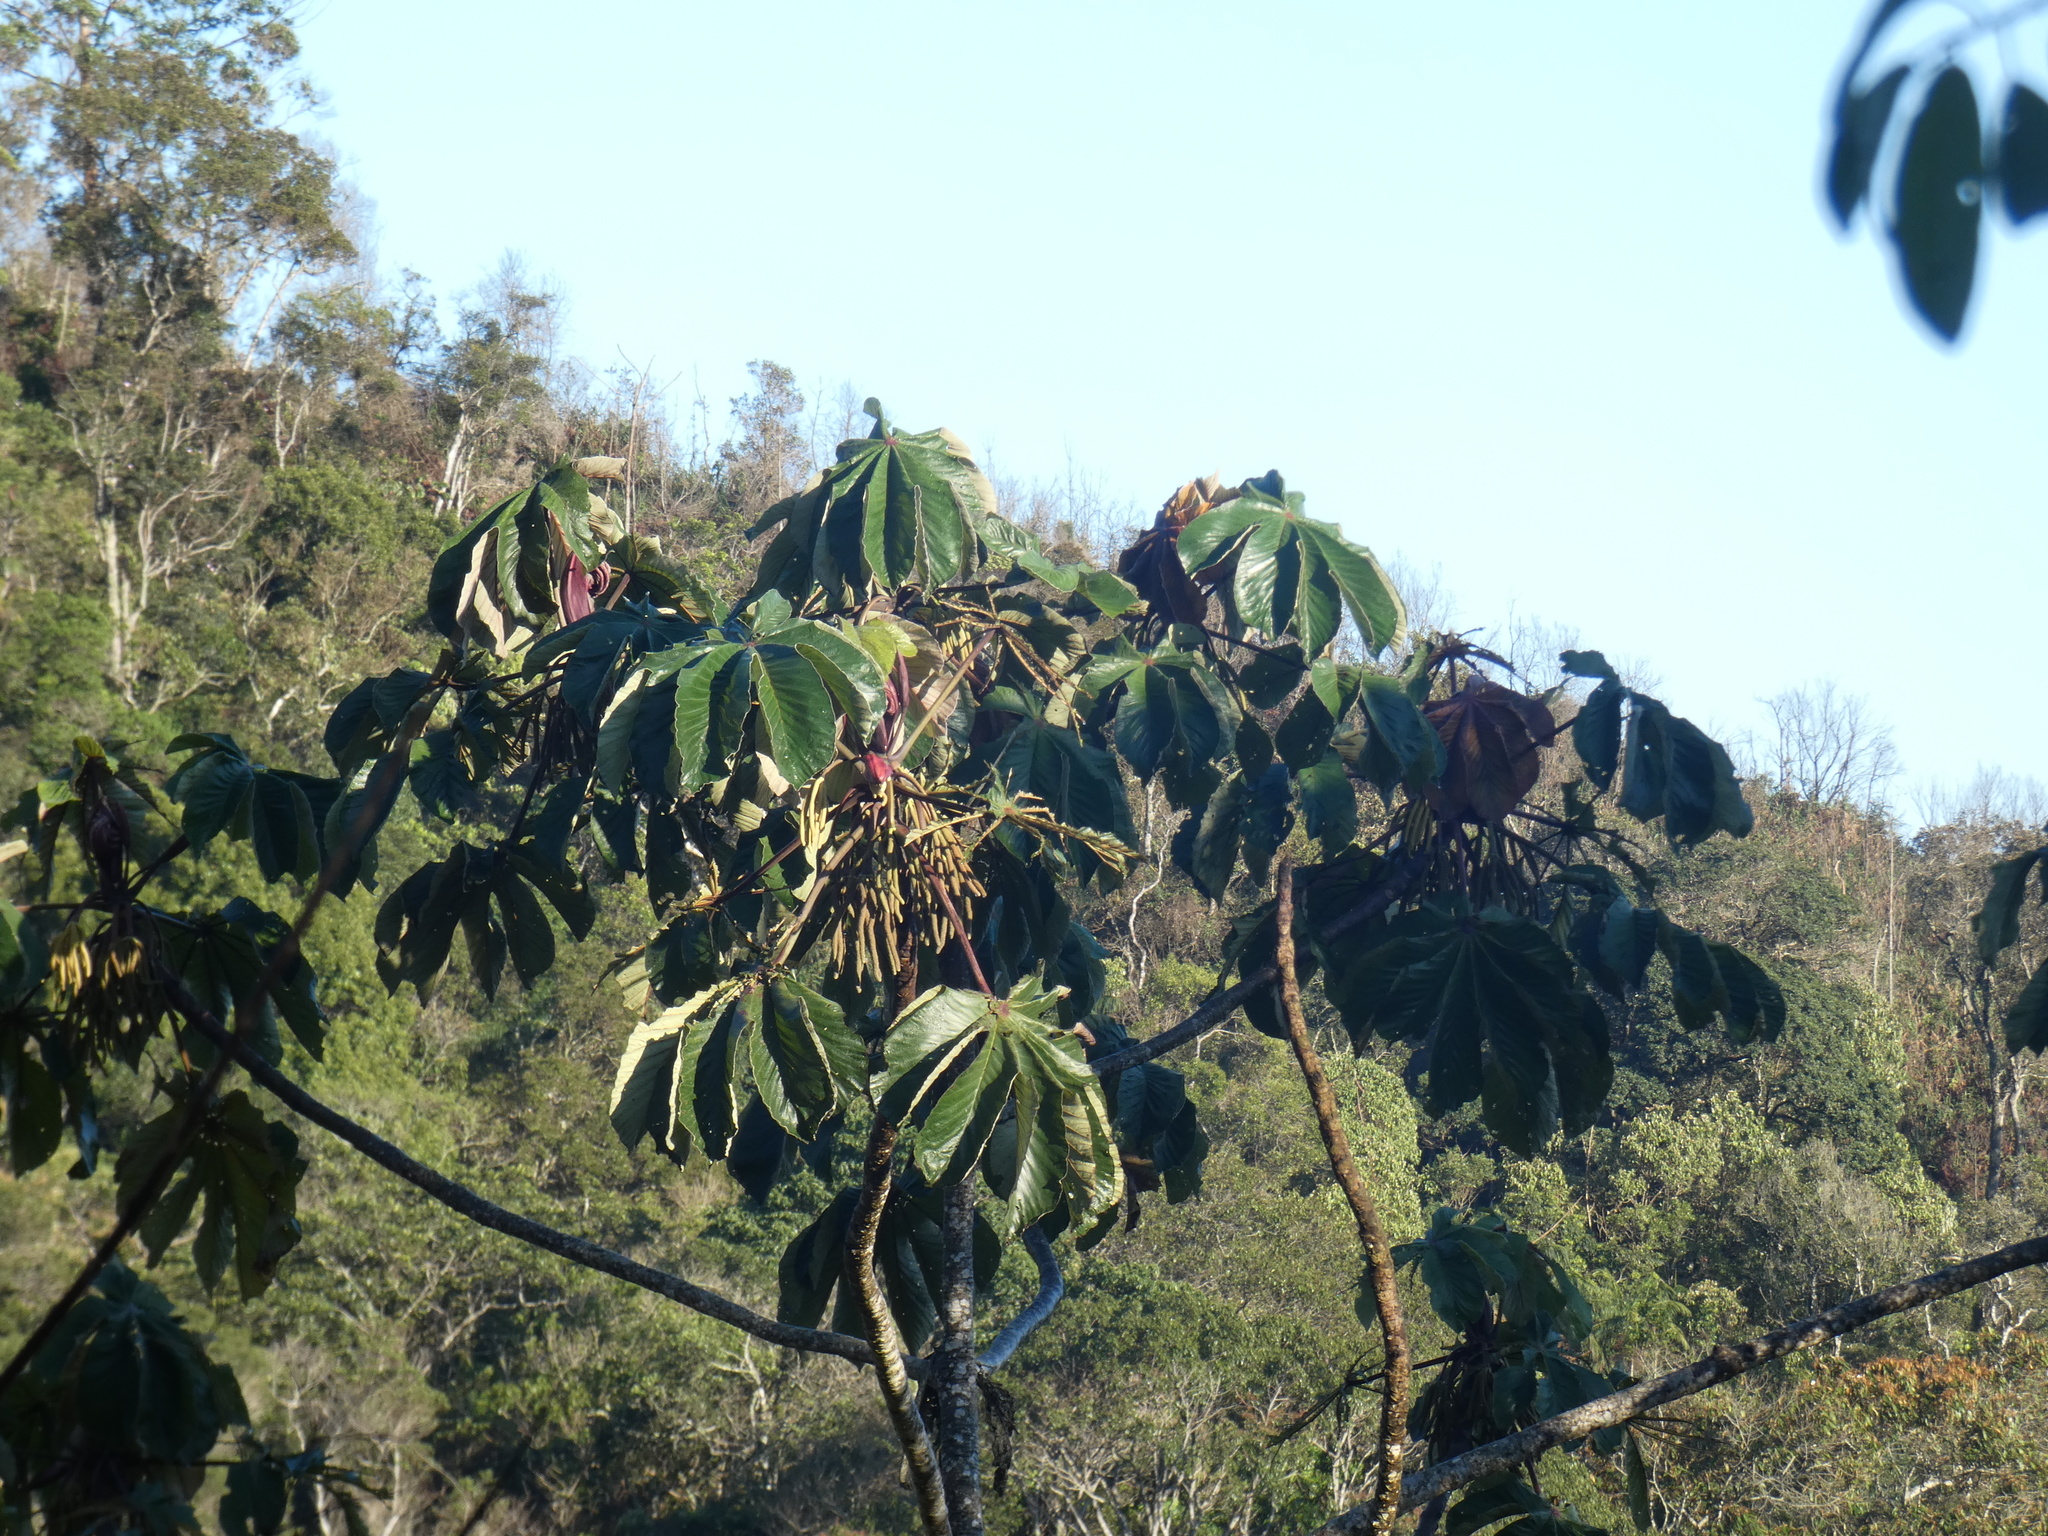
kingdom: Plantae
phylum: Tracheophyta
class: Magnoliopsida
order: Rosales
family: Urticaceae
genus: Cecropia
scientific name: Cecropia glaziovii
